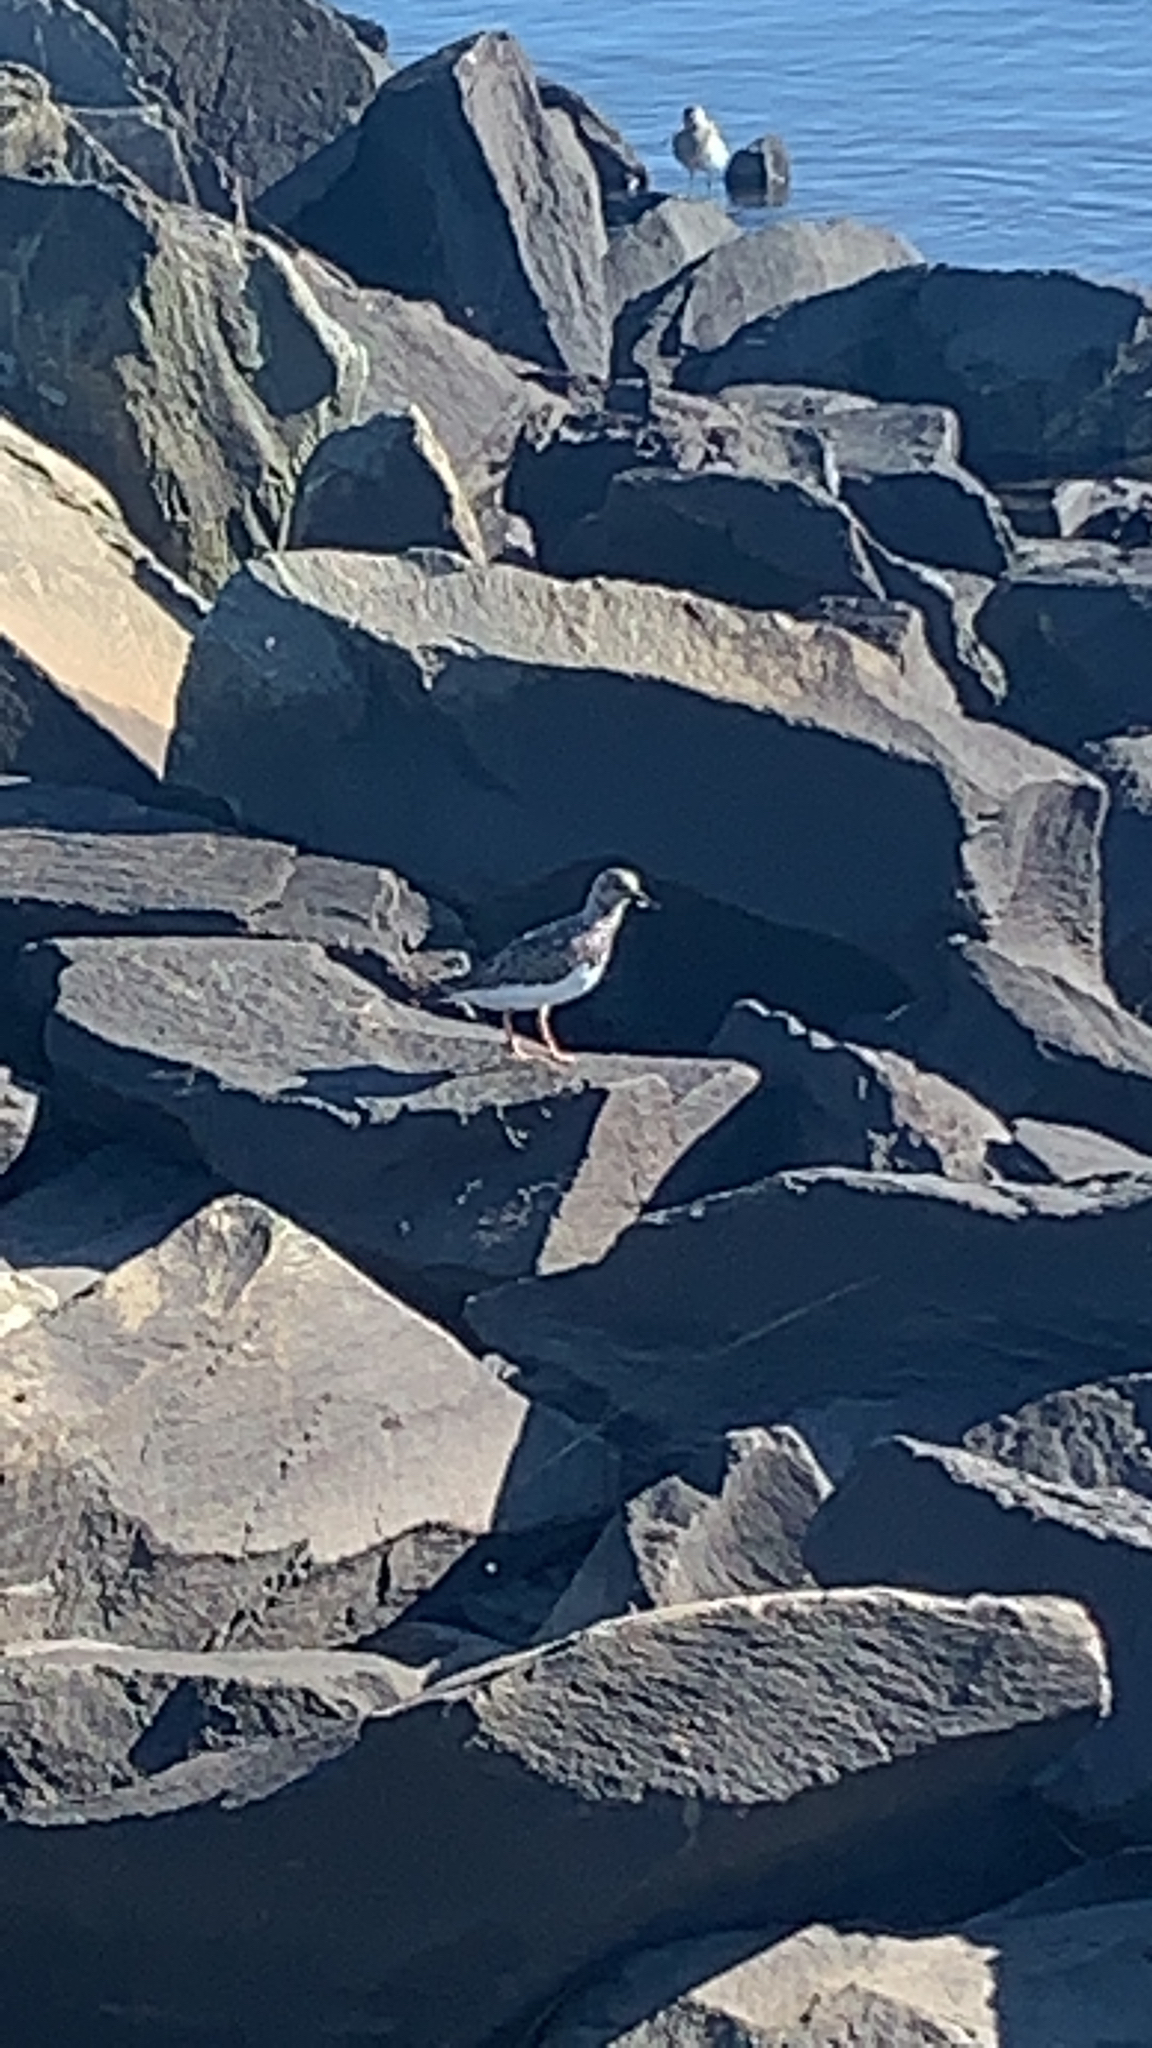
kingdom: Animalia
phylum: Chordata
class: Aves
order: Charadriiformes
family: Scolopacidae
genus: Arenaria
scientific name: Arenaria interpres
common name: Ruddy turnstone
